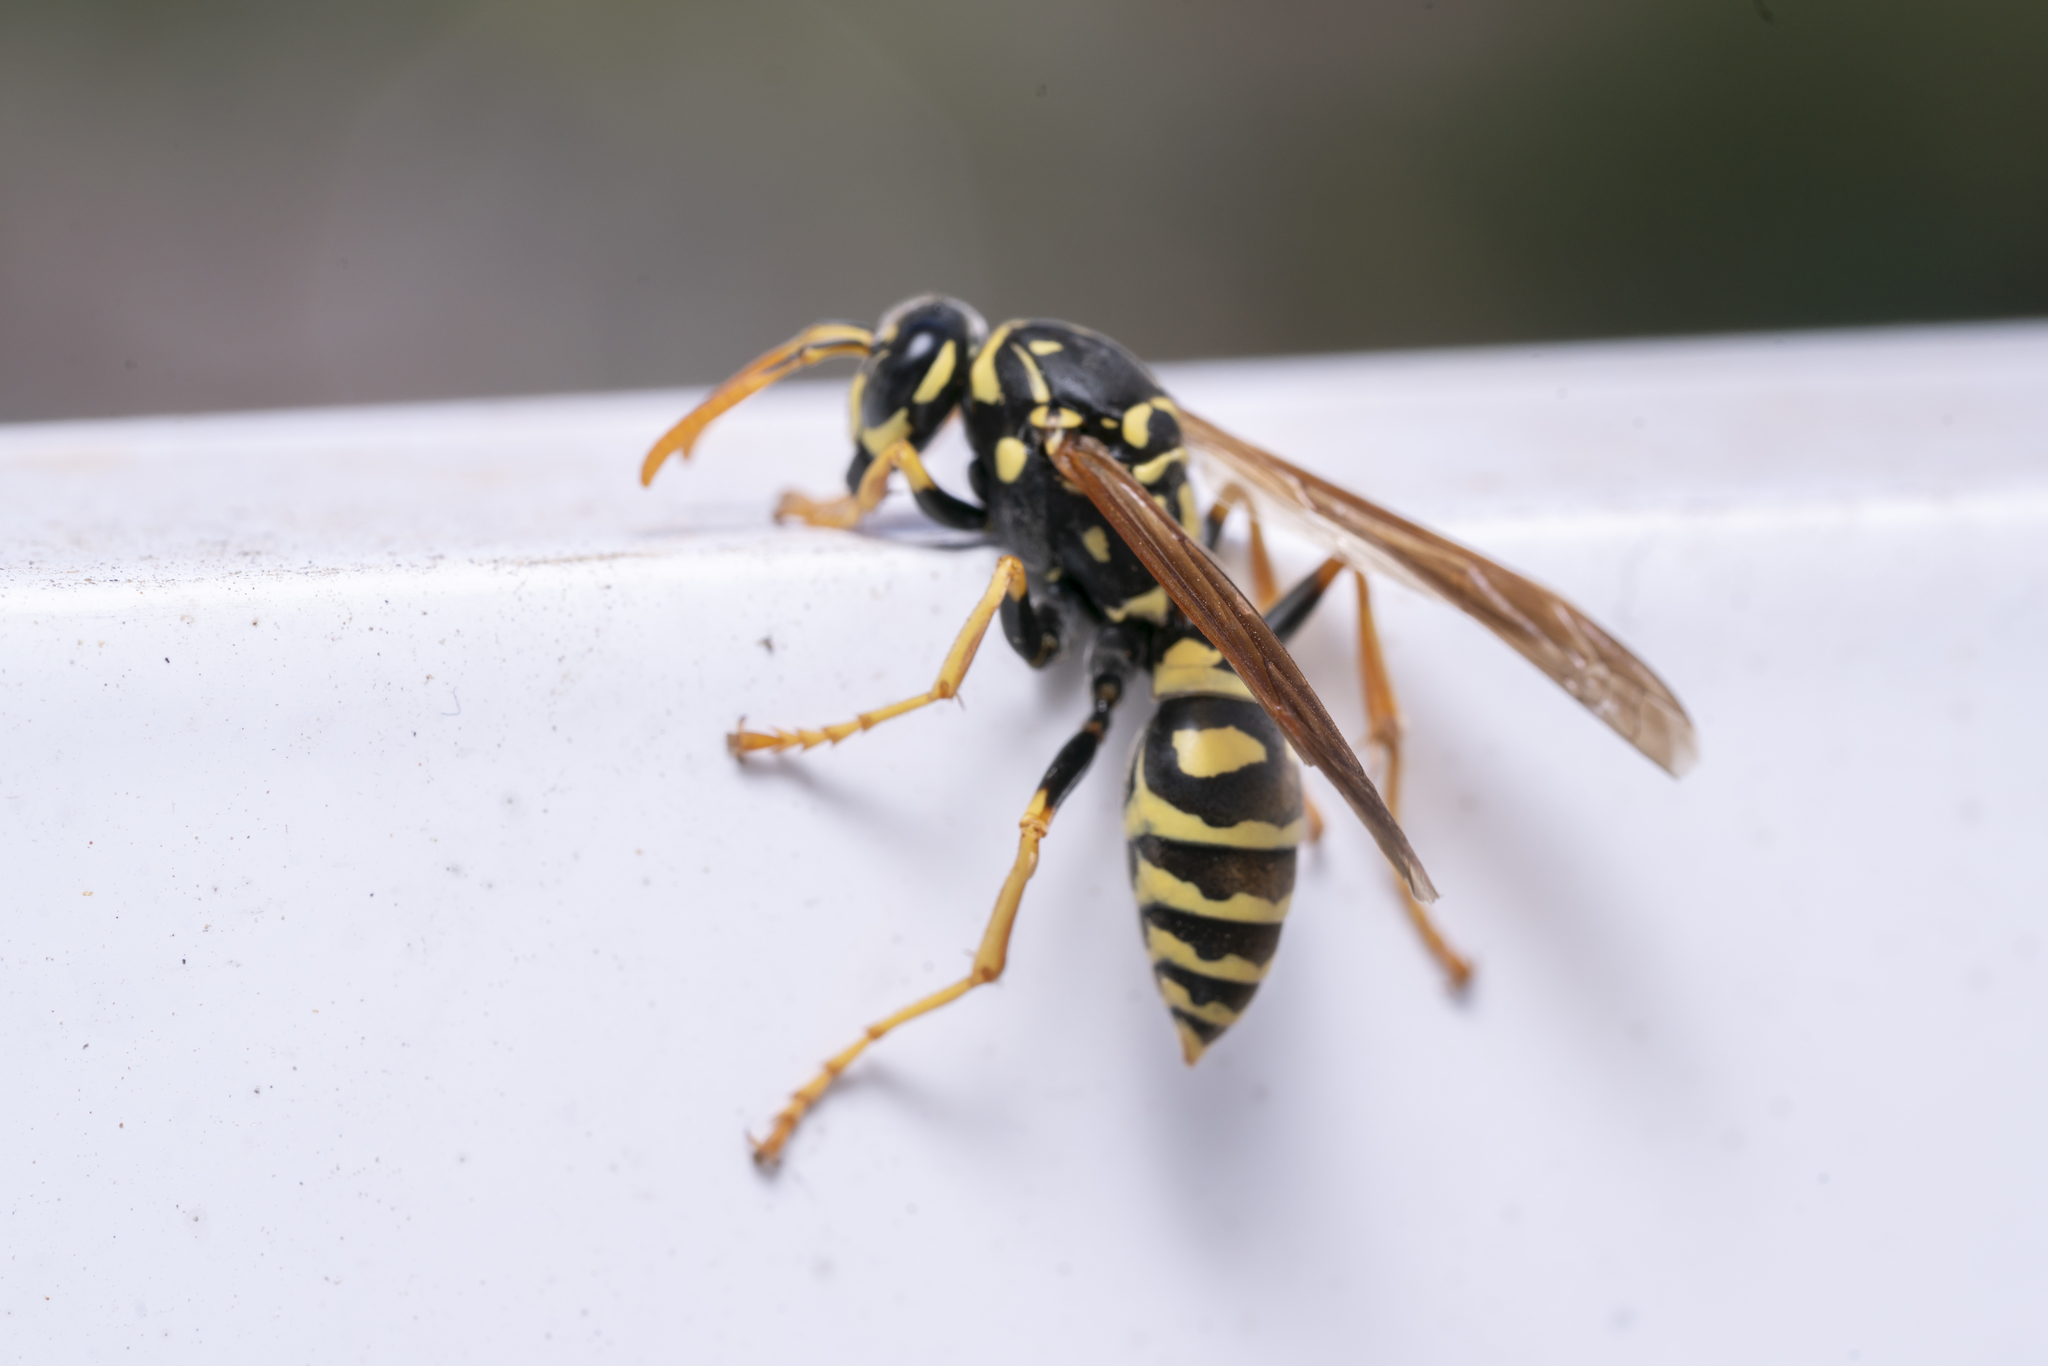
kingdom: Animalia
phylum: Arthropoda
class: Insecta
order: Hymenoptera
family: Eumenidae
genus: Polistes
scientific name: Polistes dominula
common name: Paper wasp
